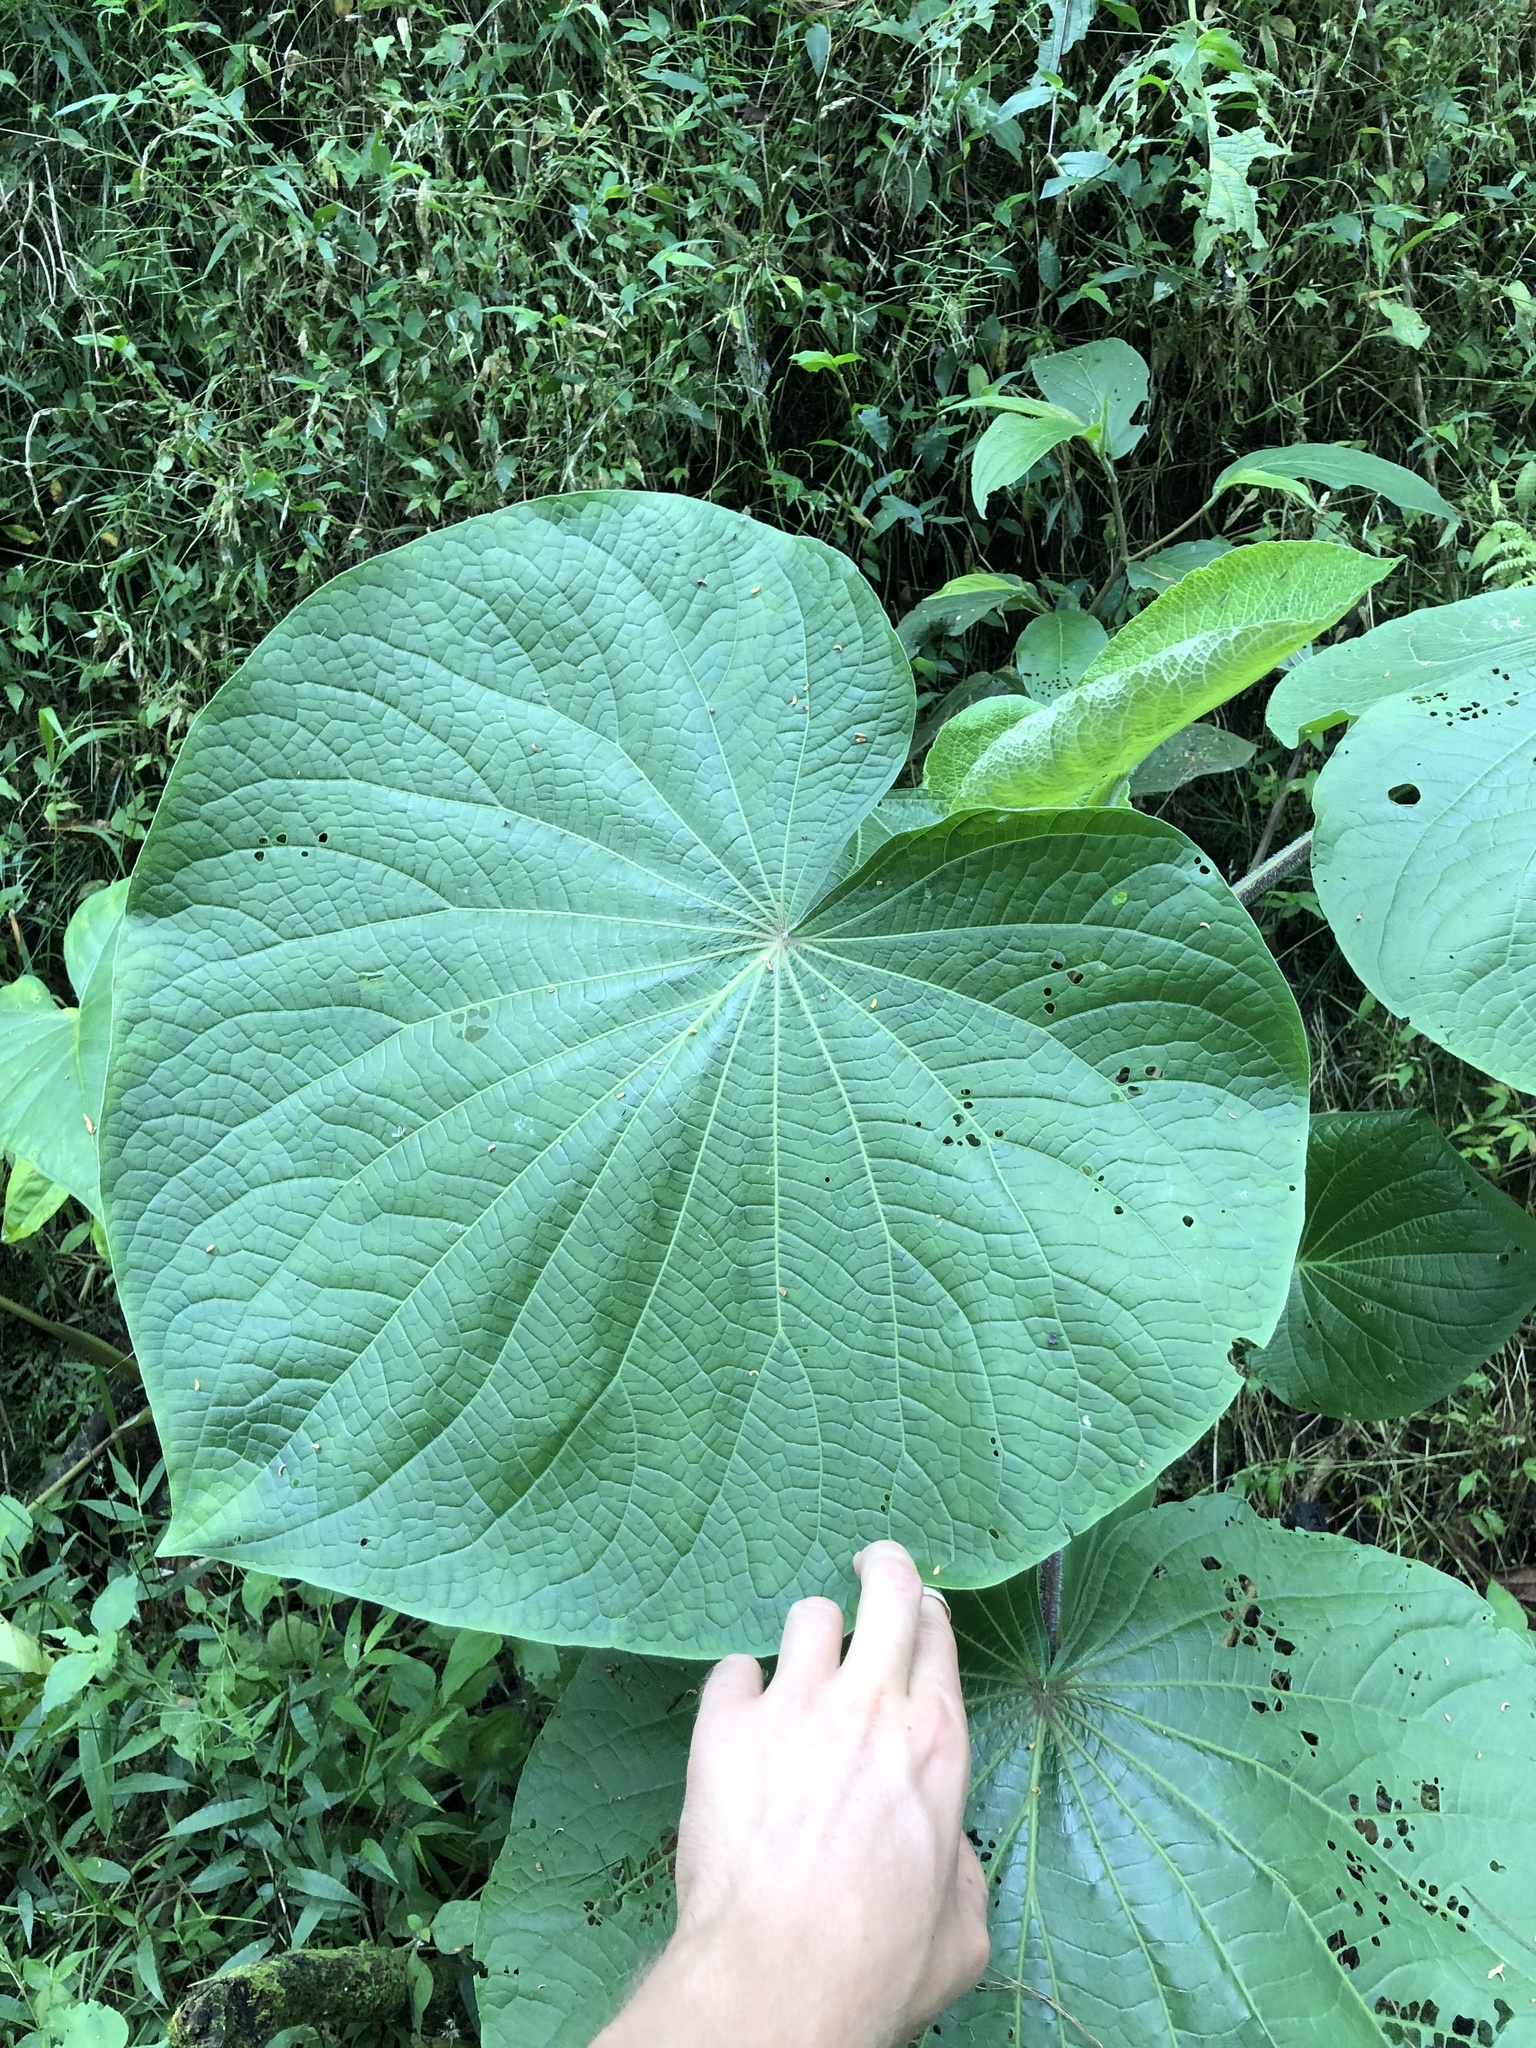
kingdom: Plantae
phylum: Tracheophyta
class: Magnoliopsida
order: Piperales
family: Piperaceae
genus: Piper
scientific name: Piper umbellatum
